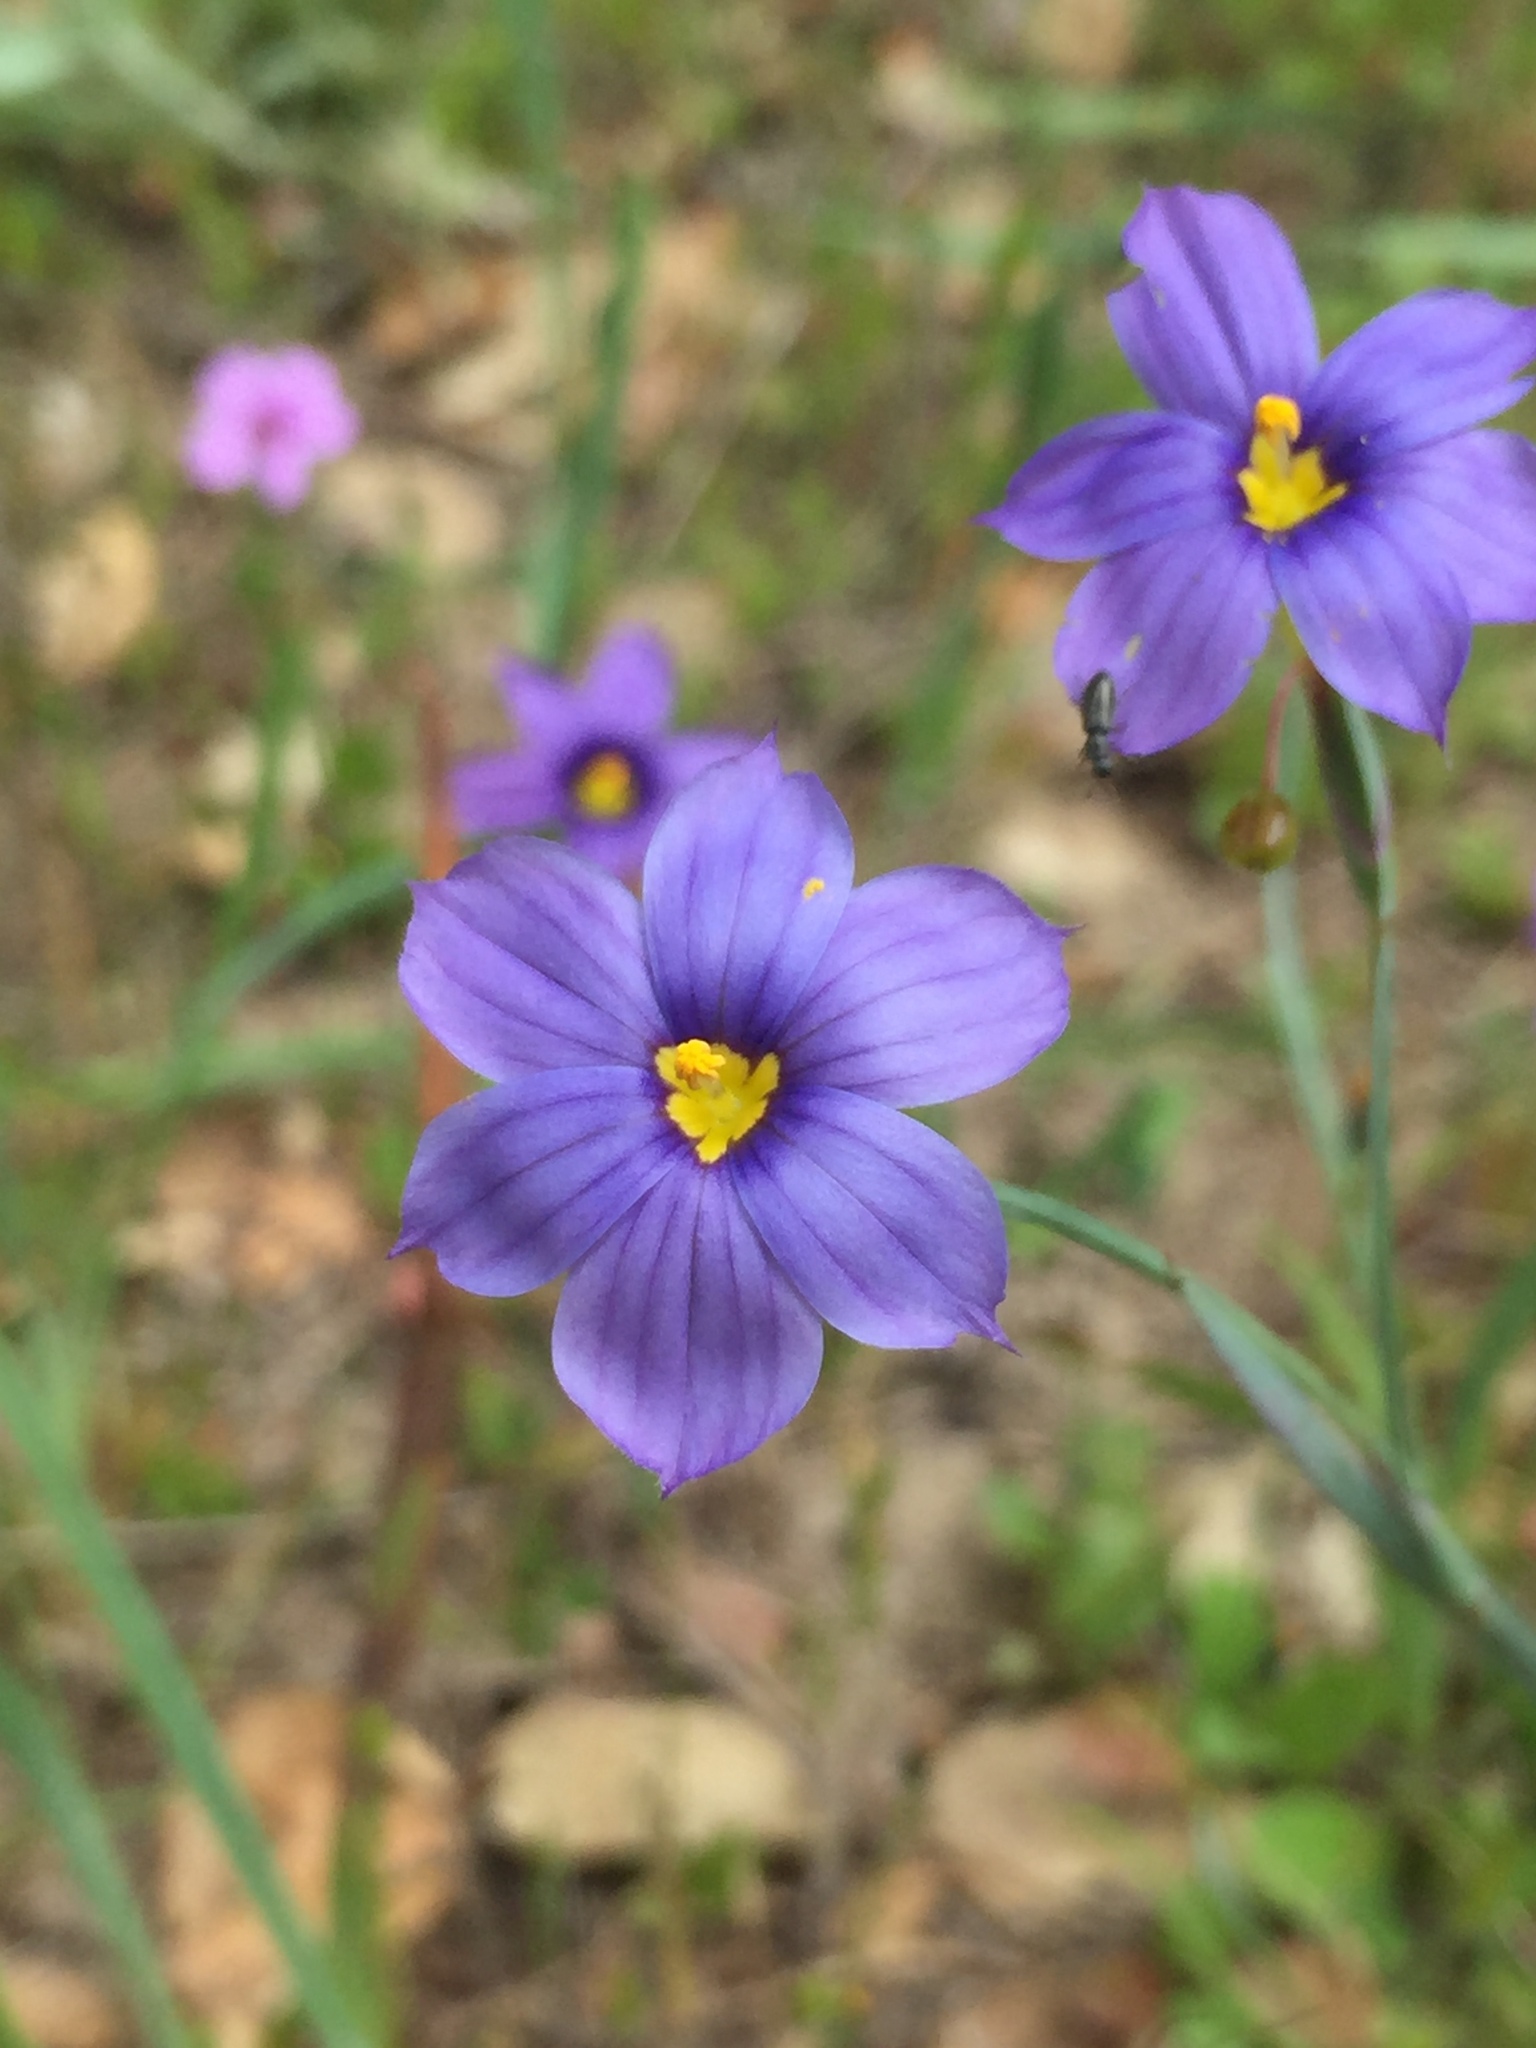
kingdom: Plantae
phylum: Tracheophyta
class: Liliopsida
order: Asparagales
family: Iridaceae
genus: Sisyrinchium
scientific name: Sisyrinchium bellum
